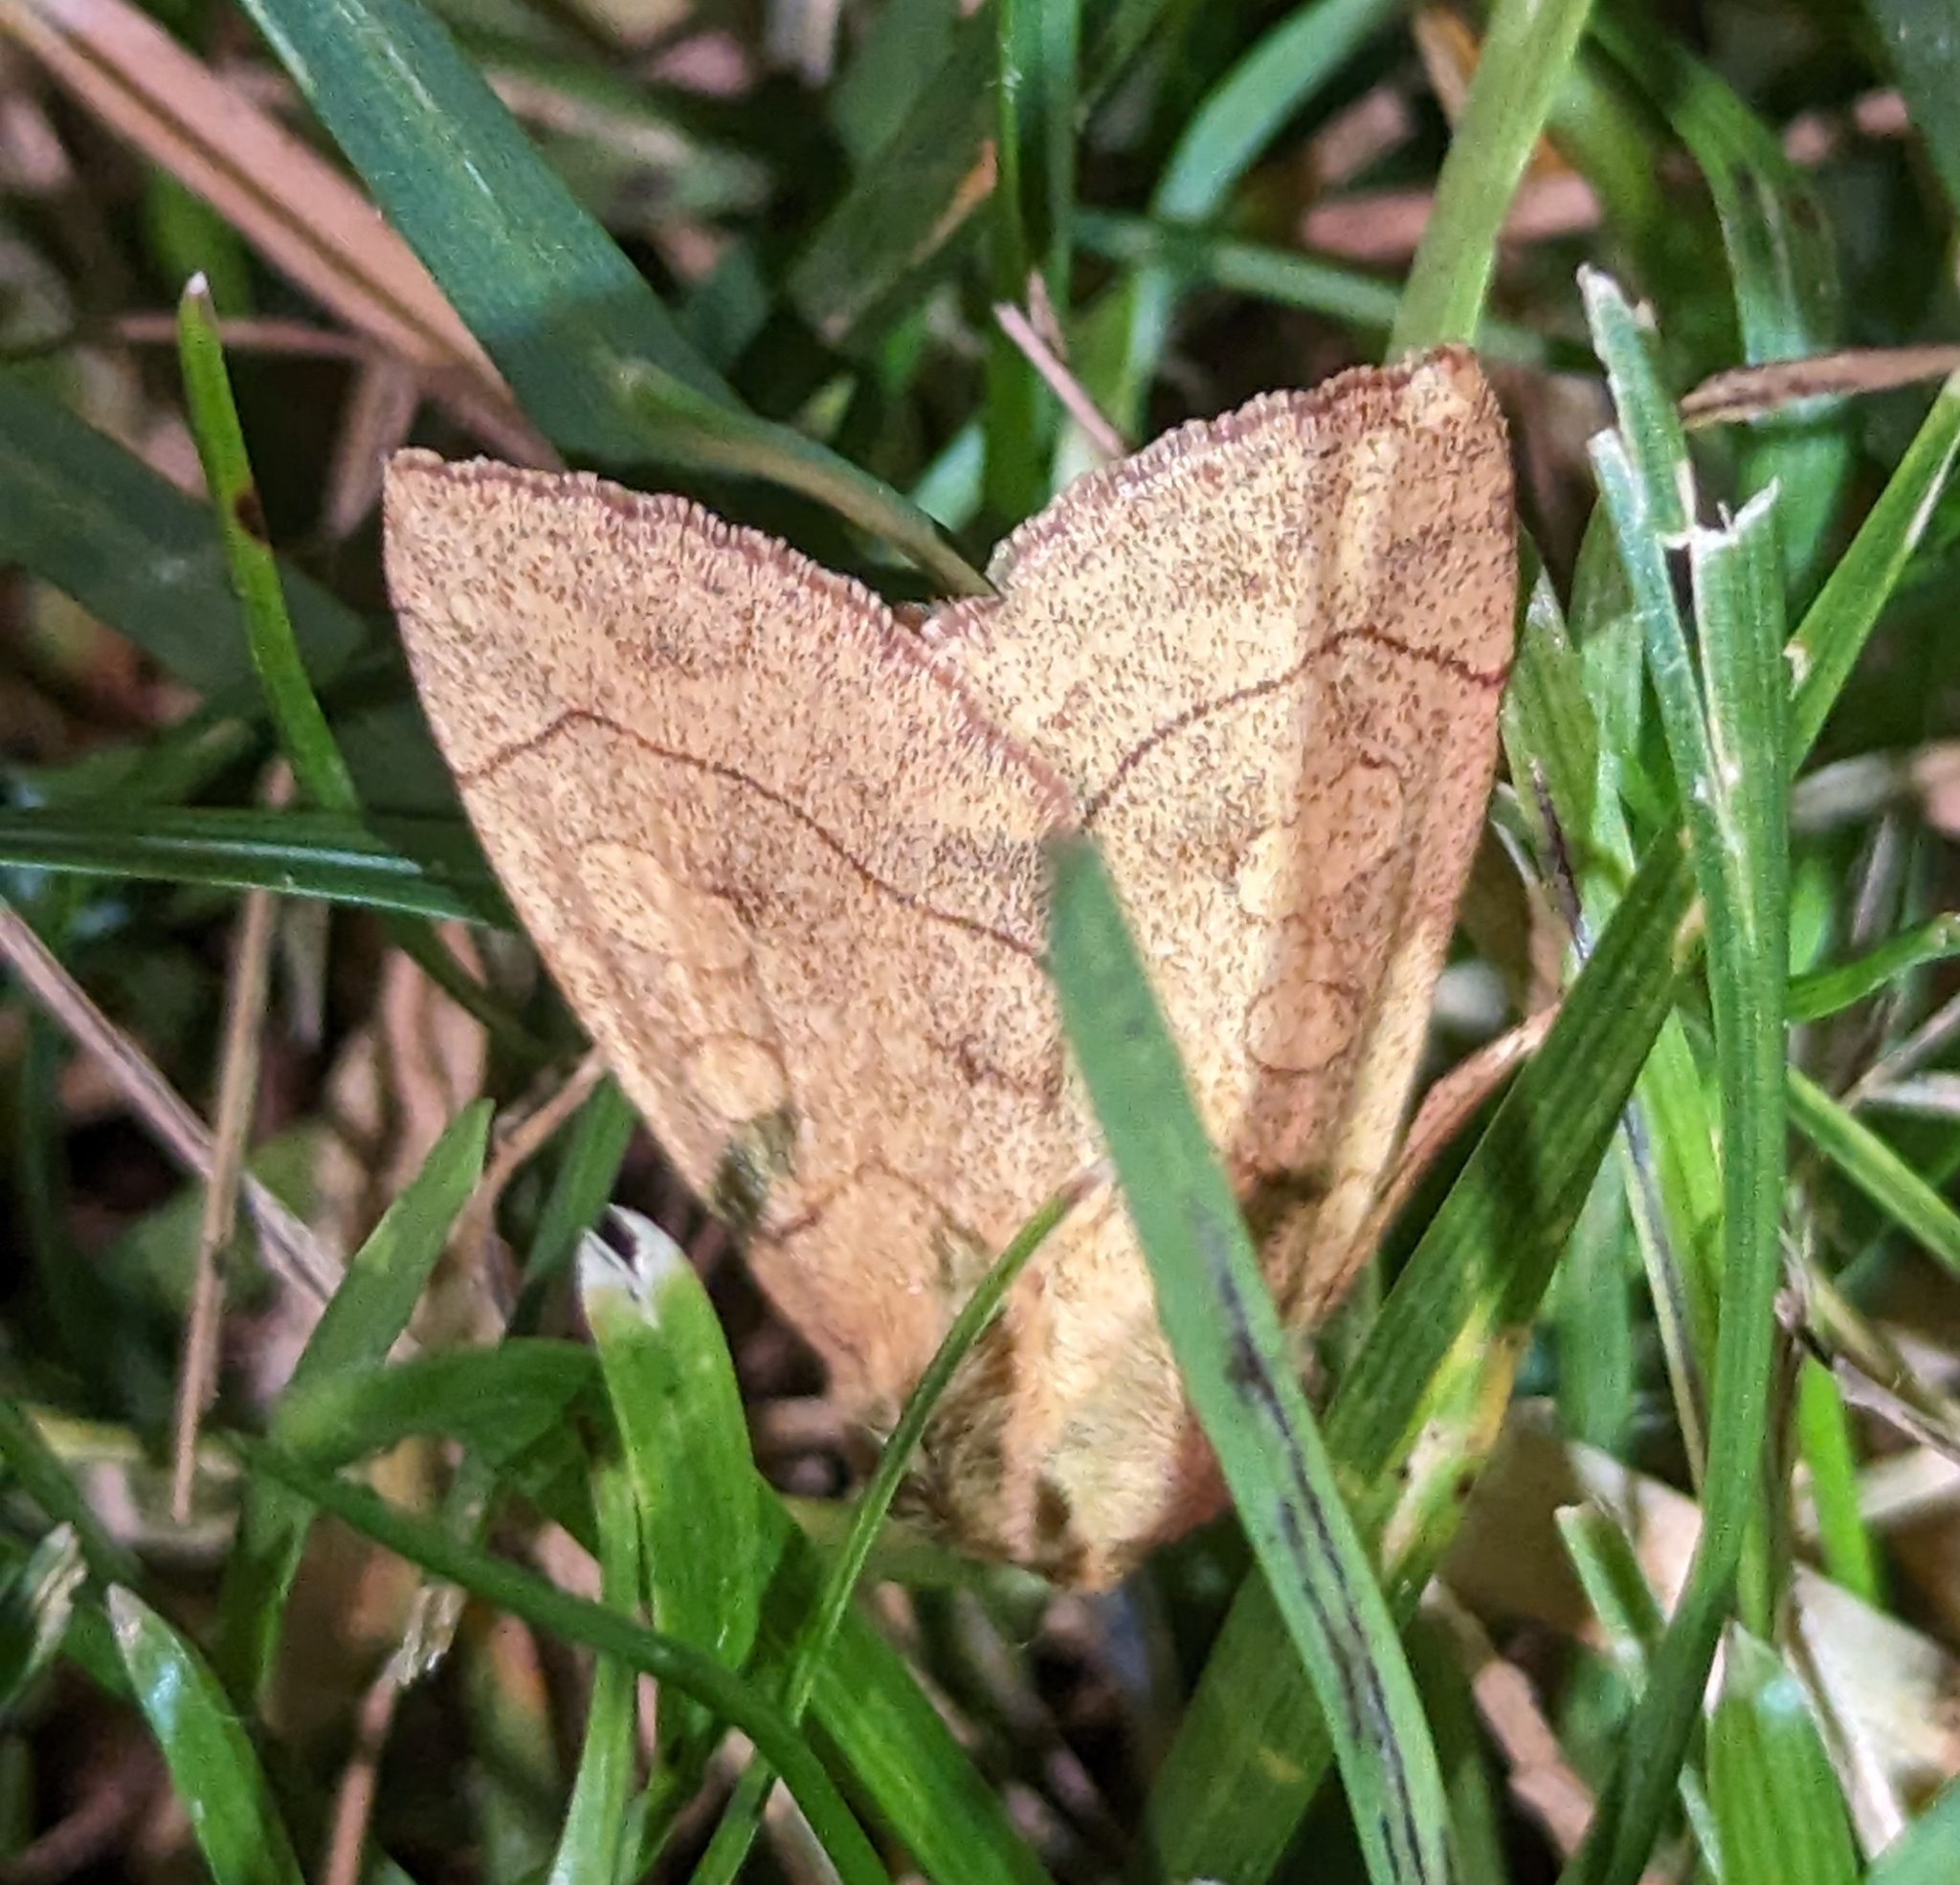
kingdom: Animalia
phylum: Arthropoda
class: Insecta
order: Lepidoptera
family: Noctuidae
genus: Enargia
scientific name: Enargia decolor
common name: Aspen twoleaf tier moth
